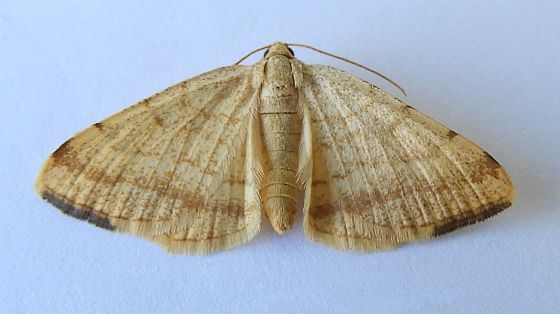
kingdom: Animalia
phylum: Arthropoda
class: Insecta
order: Lepidoptera
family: Geometridae
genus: Macaria
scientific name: Macaria octolineata
